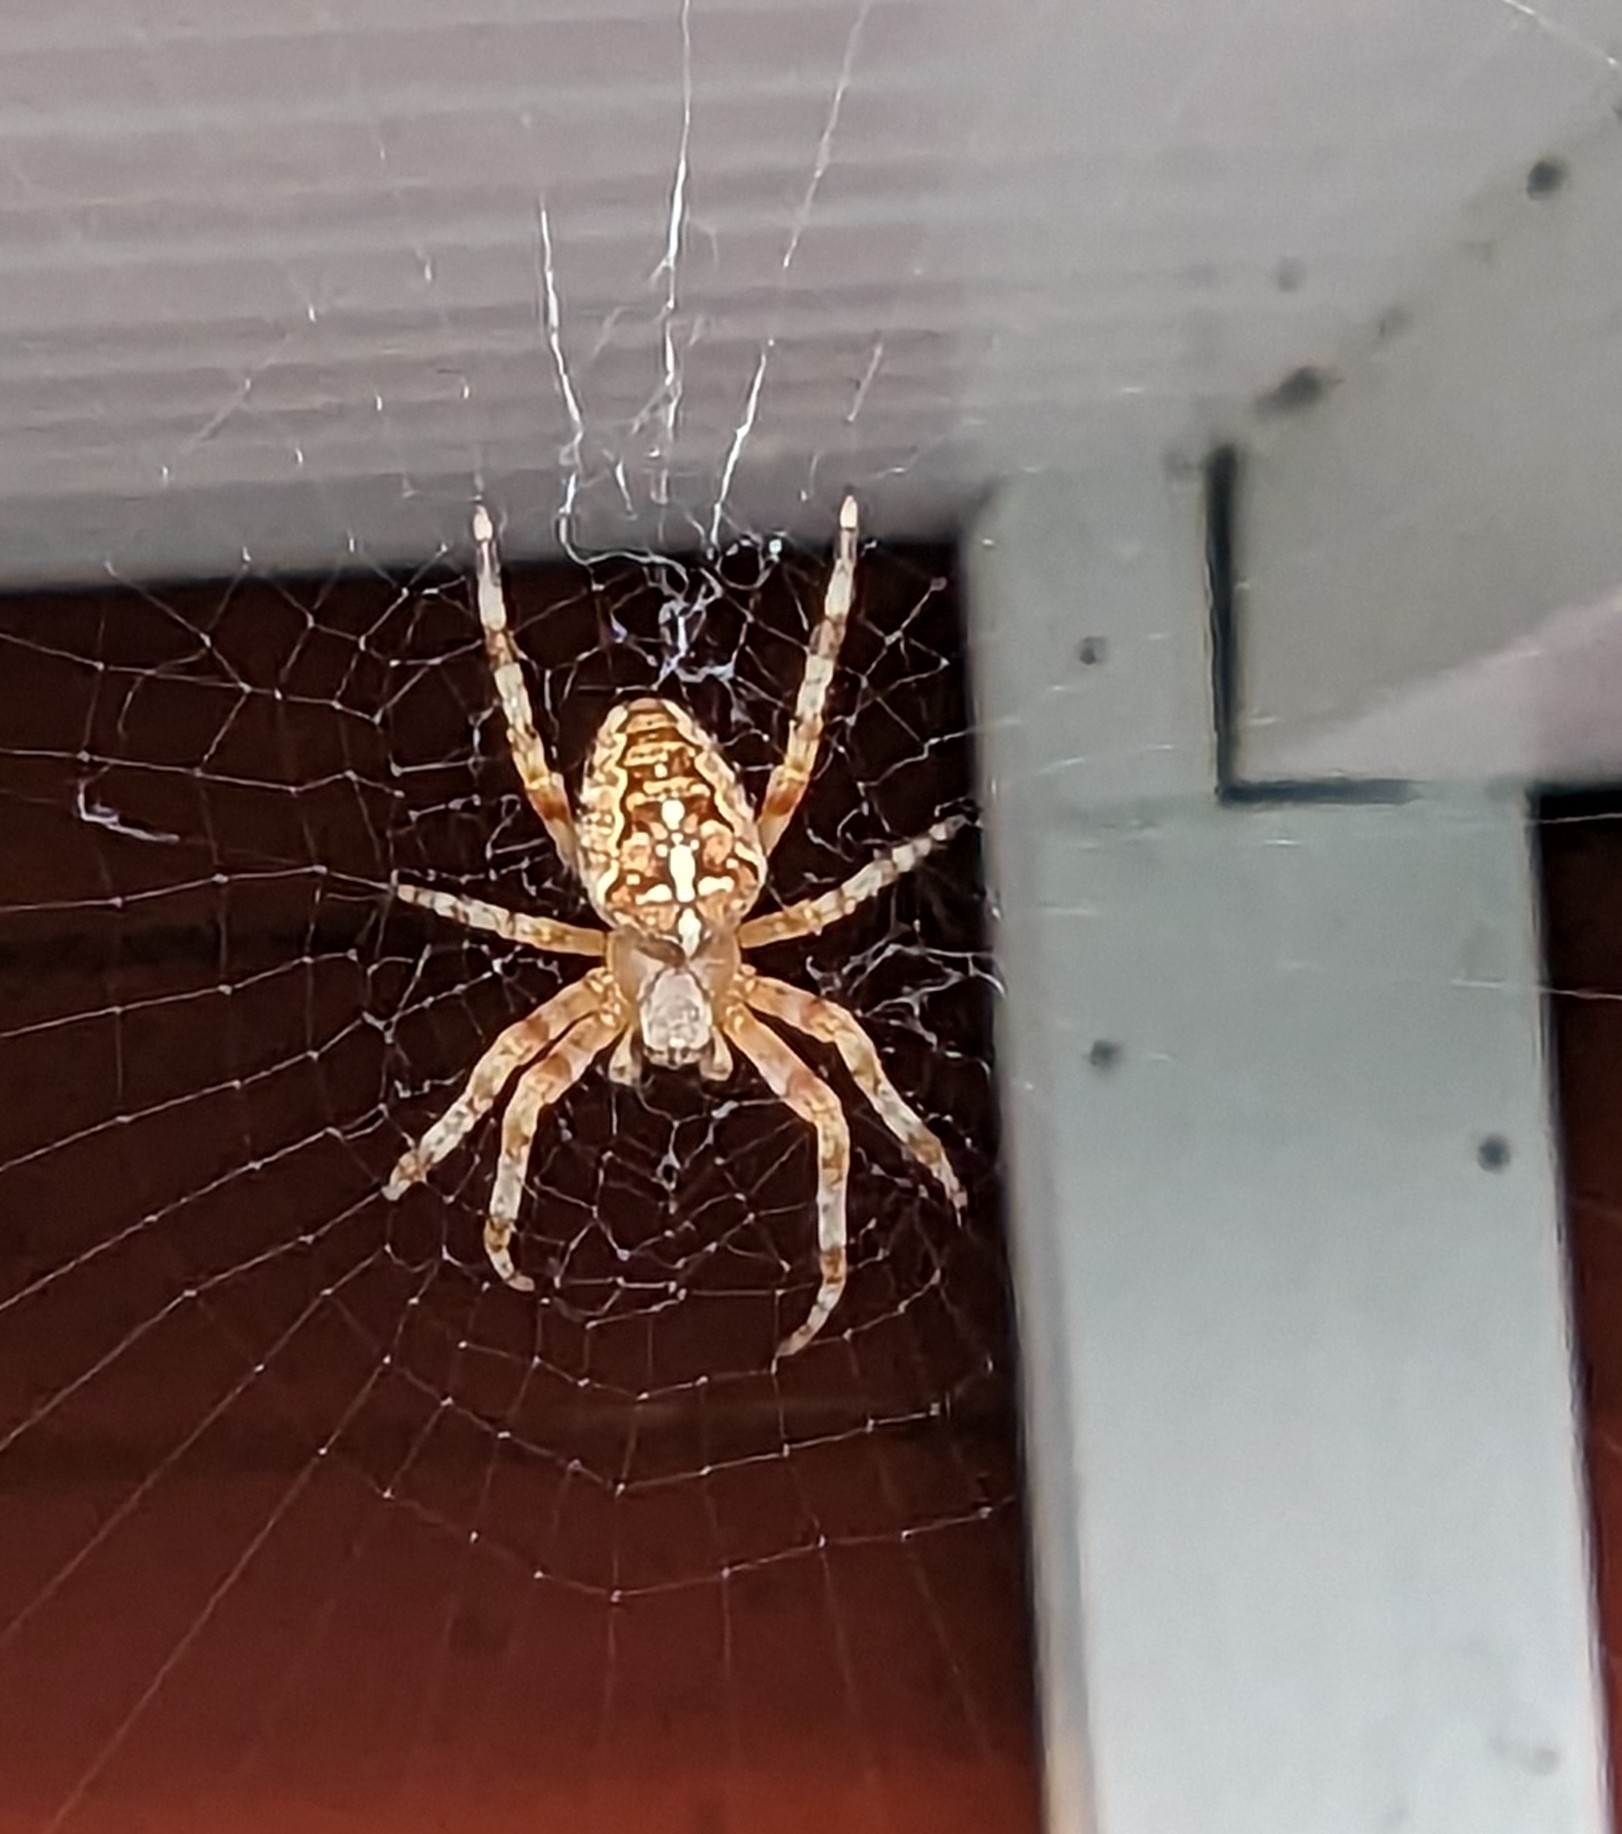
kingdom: Animalia
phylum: Arthropoda
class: Arachnida
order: Araneae
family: Araneidae
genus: Araneus
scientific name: Araneus diadematus
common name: Cross orbweaver
